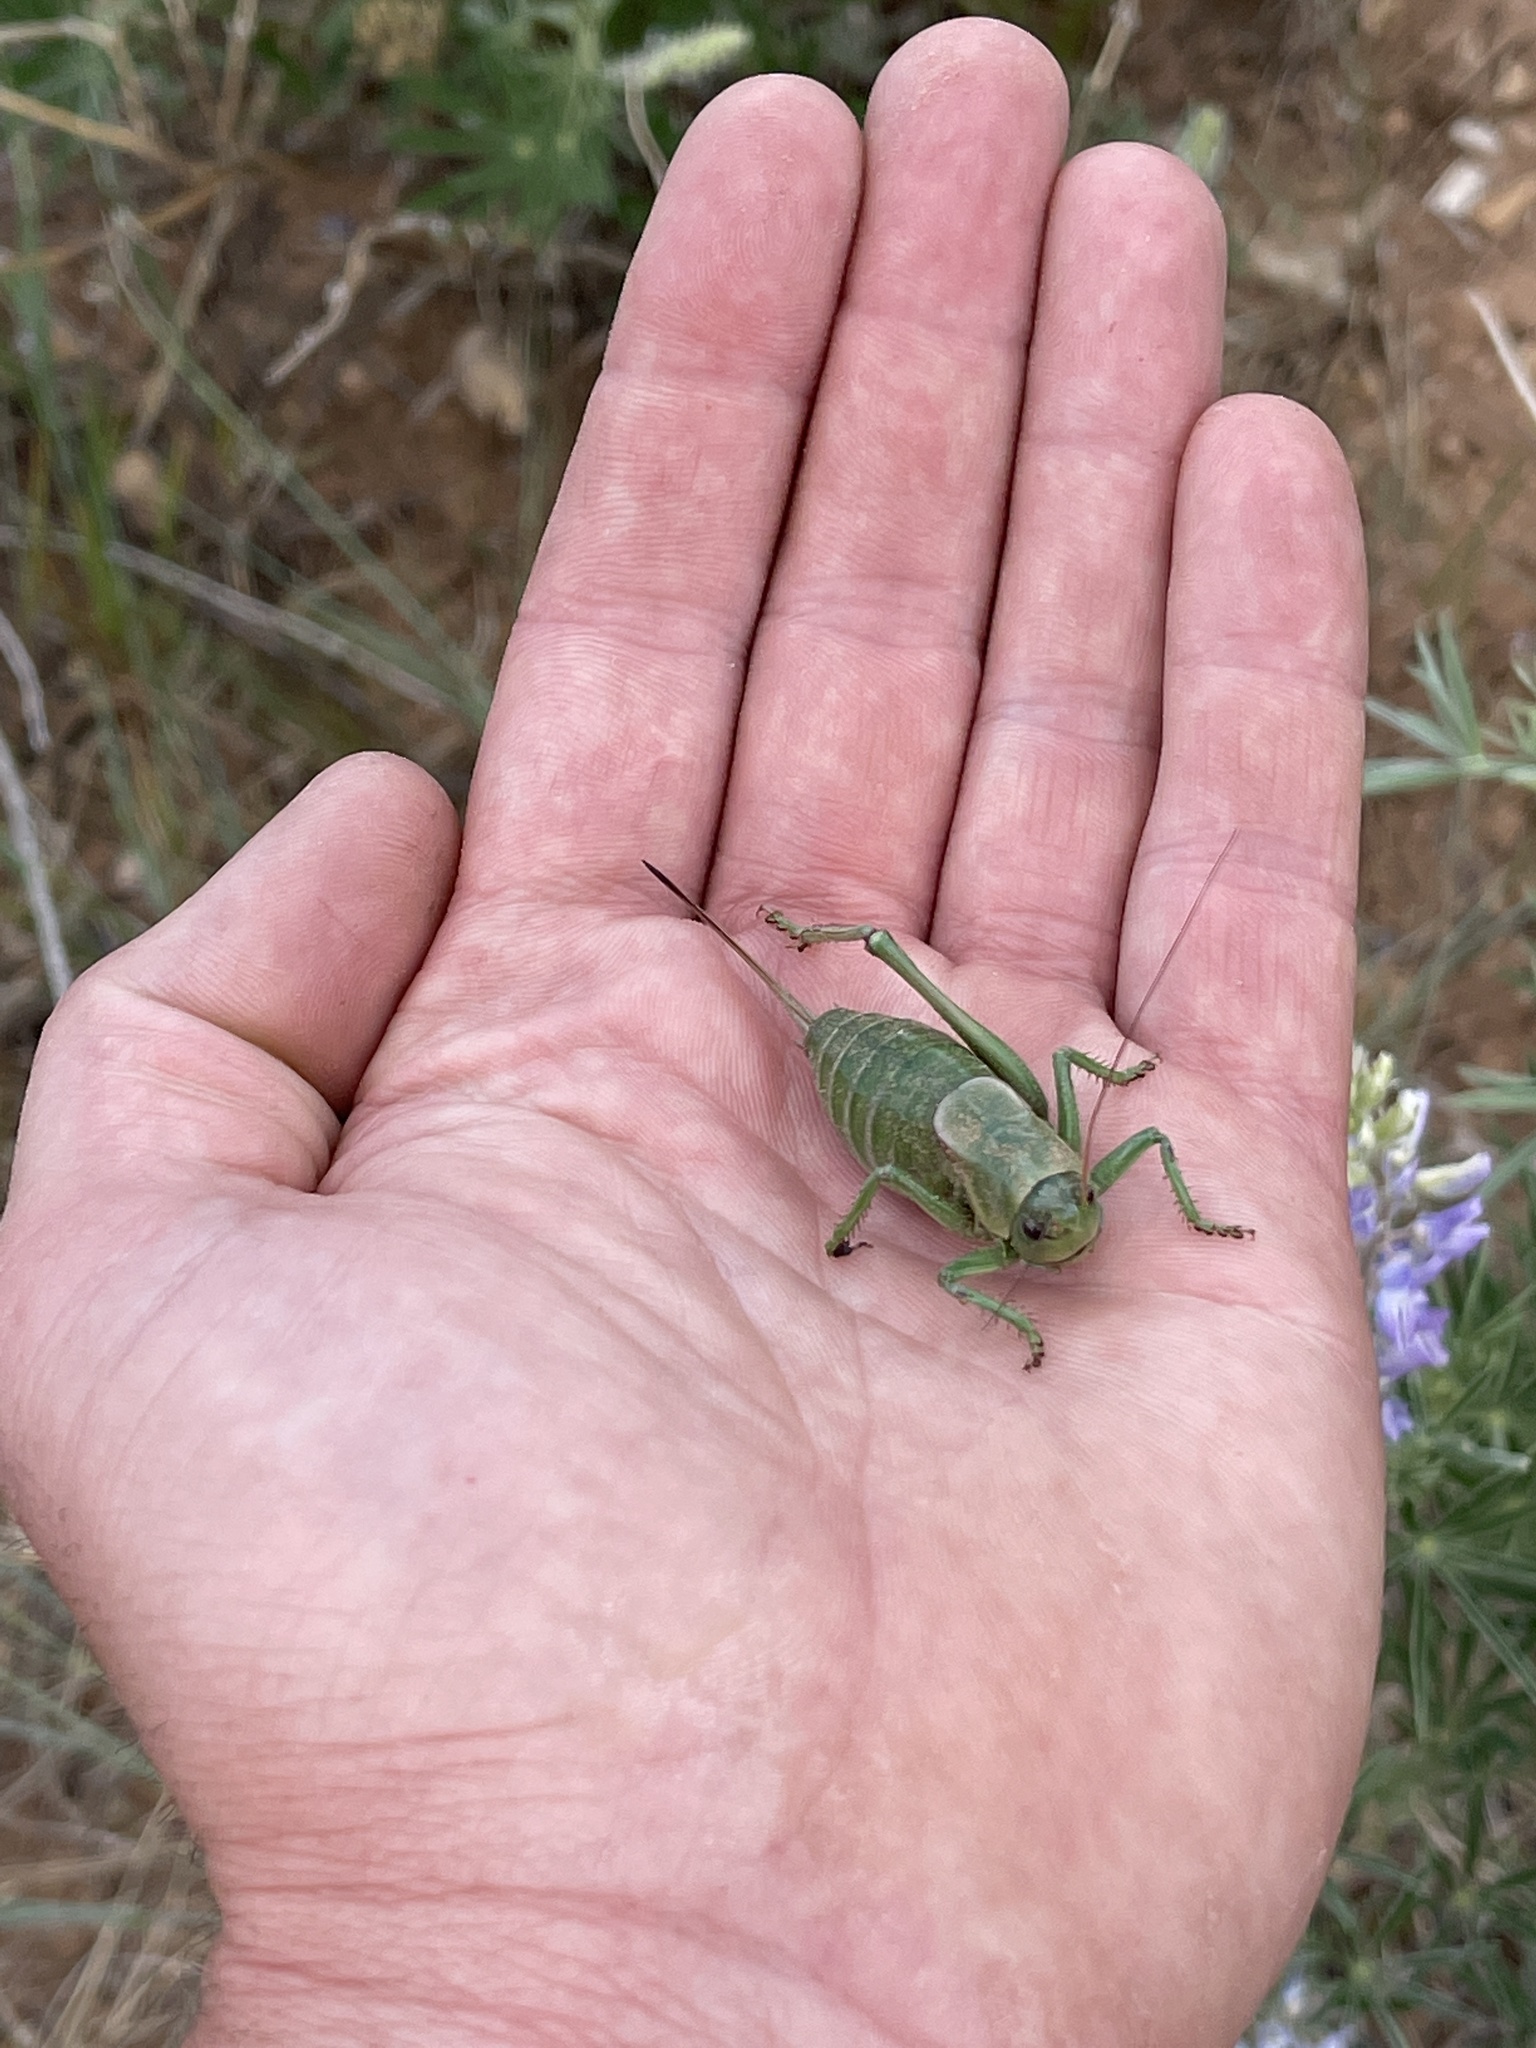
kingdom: Animalia
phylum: Arthropoda
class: Insecta
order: Orthoptera
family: Tettigoniidae
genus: Anabrus
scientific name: Anabrus simplex
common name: Mormon cricket
